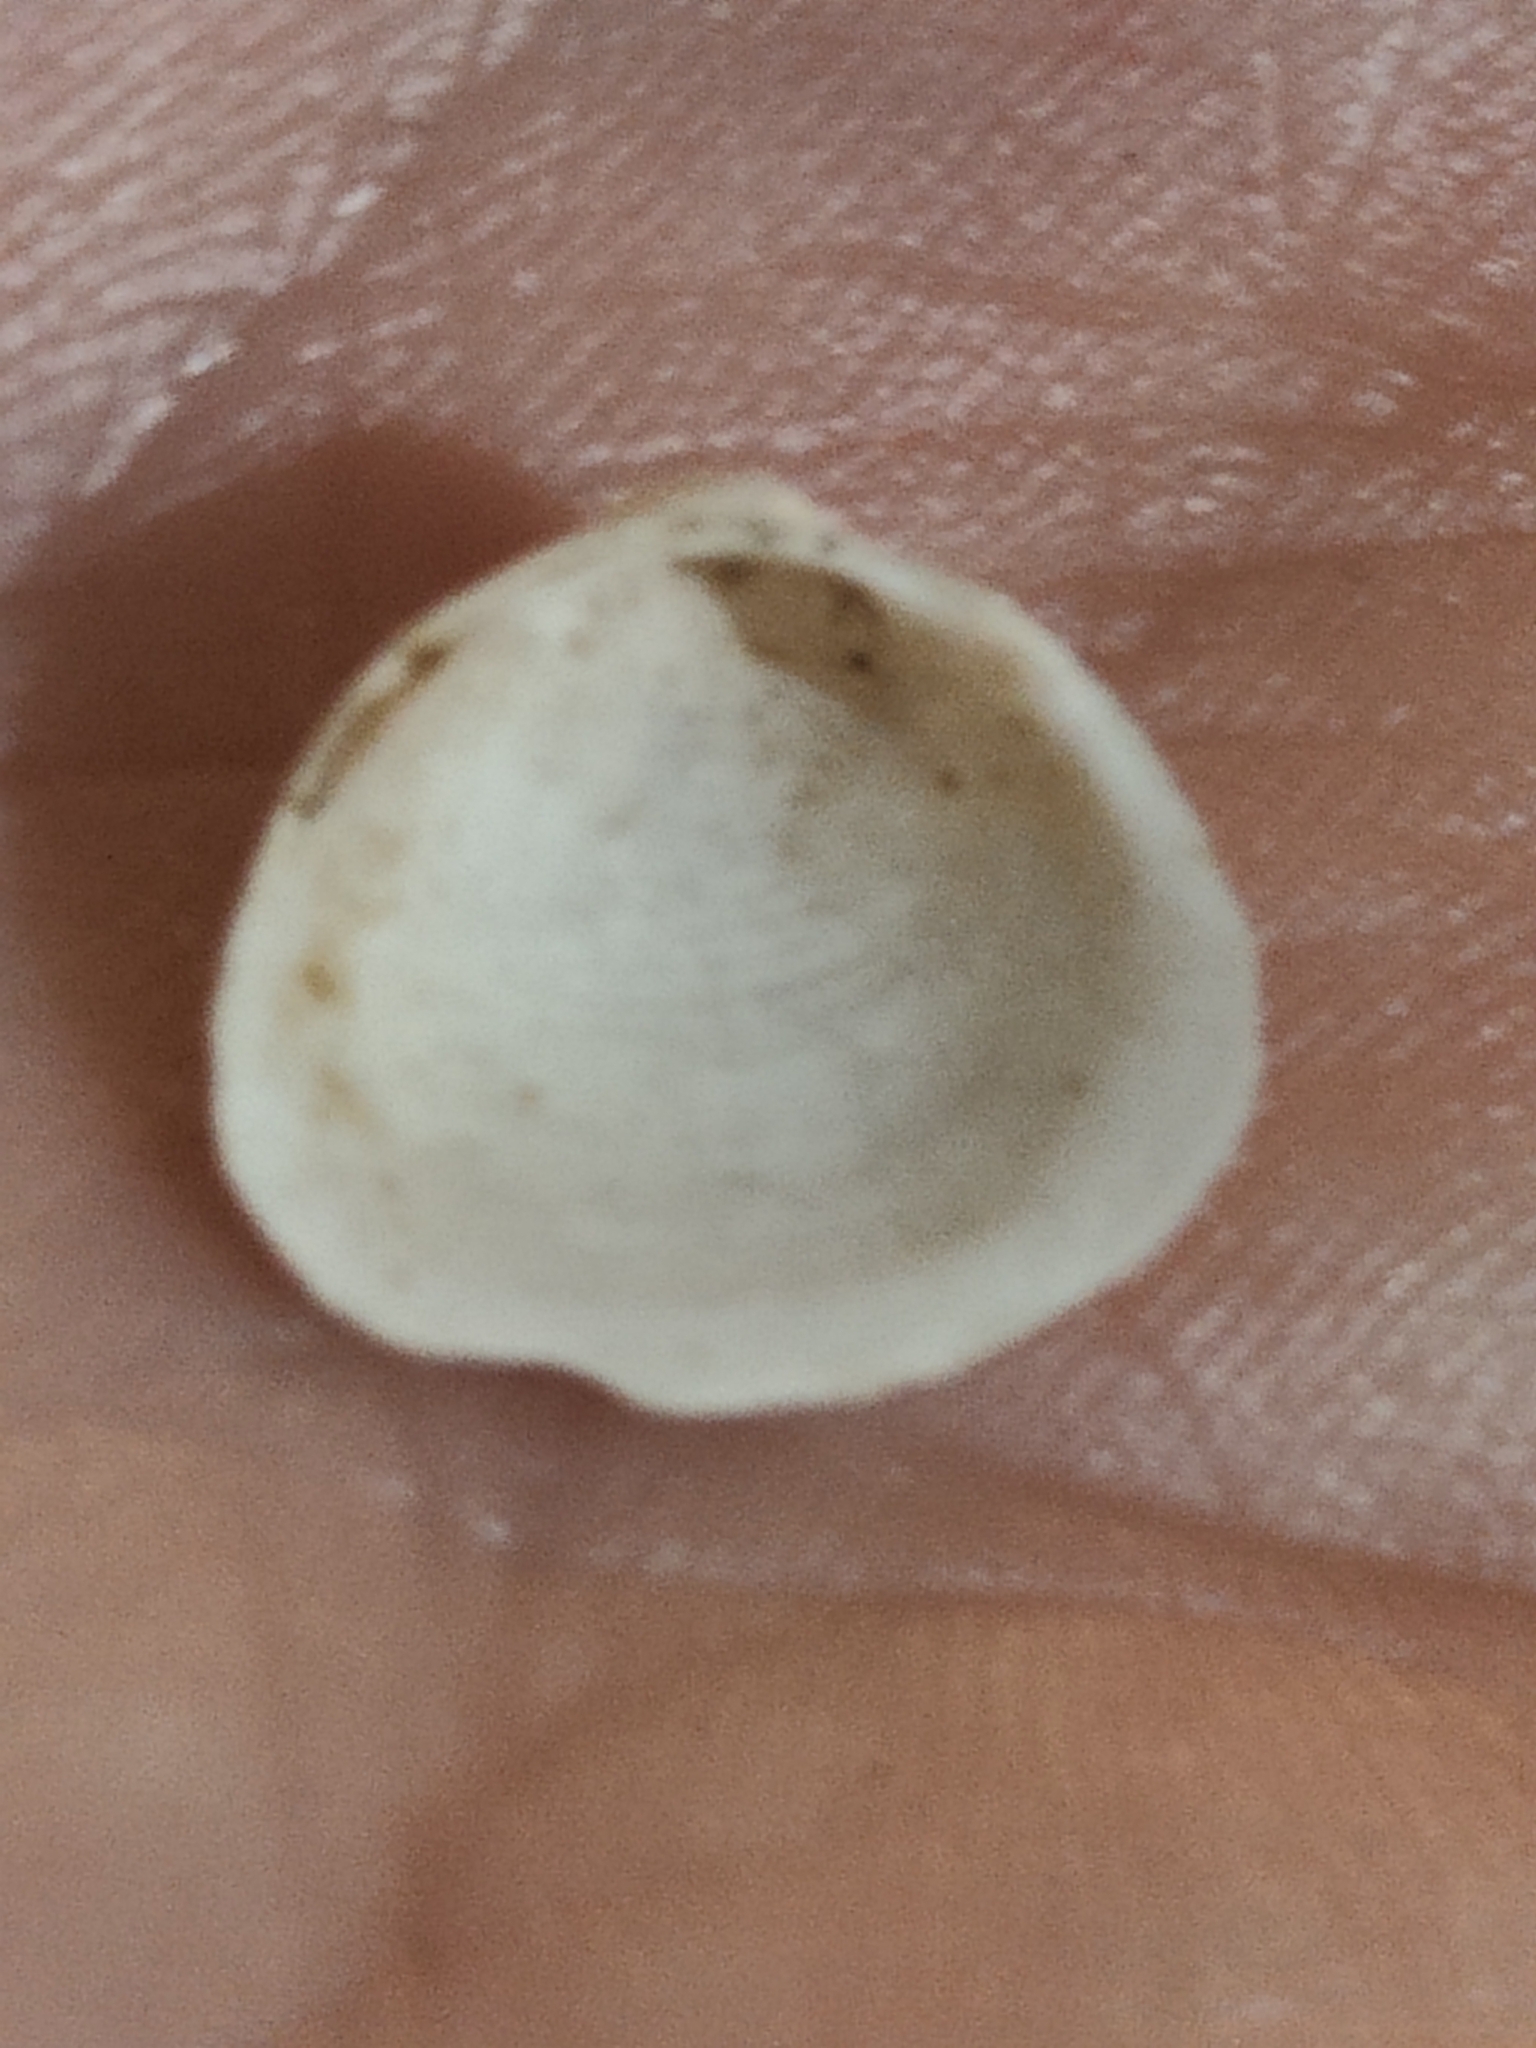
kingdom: Animalia
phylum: Mollusca
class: Bivalvia
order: Sphaeriida
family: Sphaeriidae
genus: Sphaerium
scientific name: Sphaerium striatinum
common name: Striated fingernailclam
